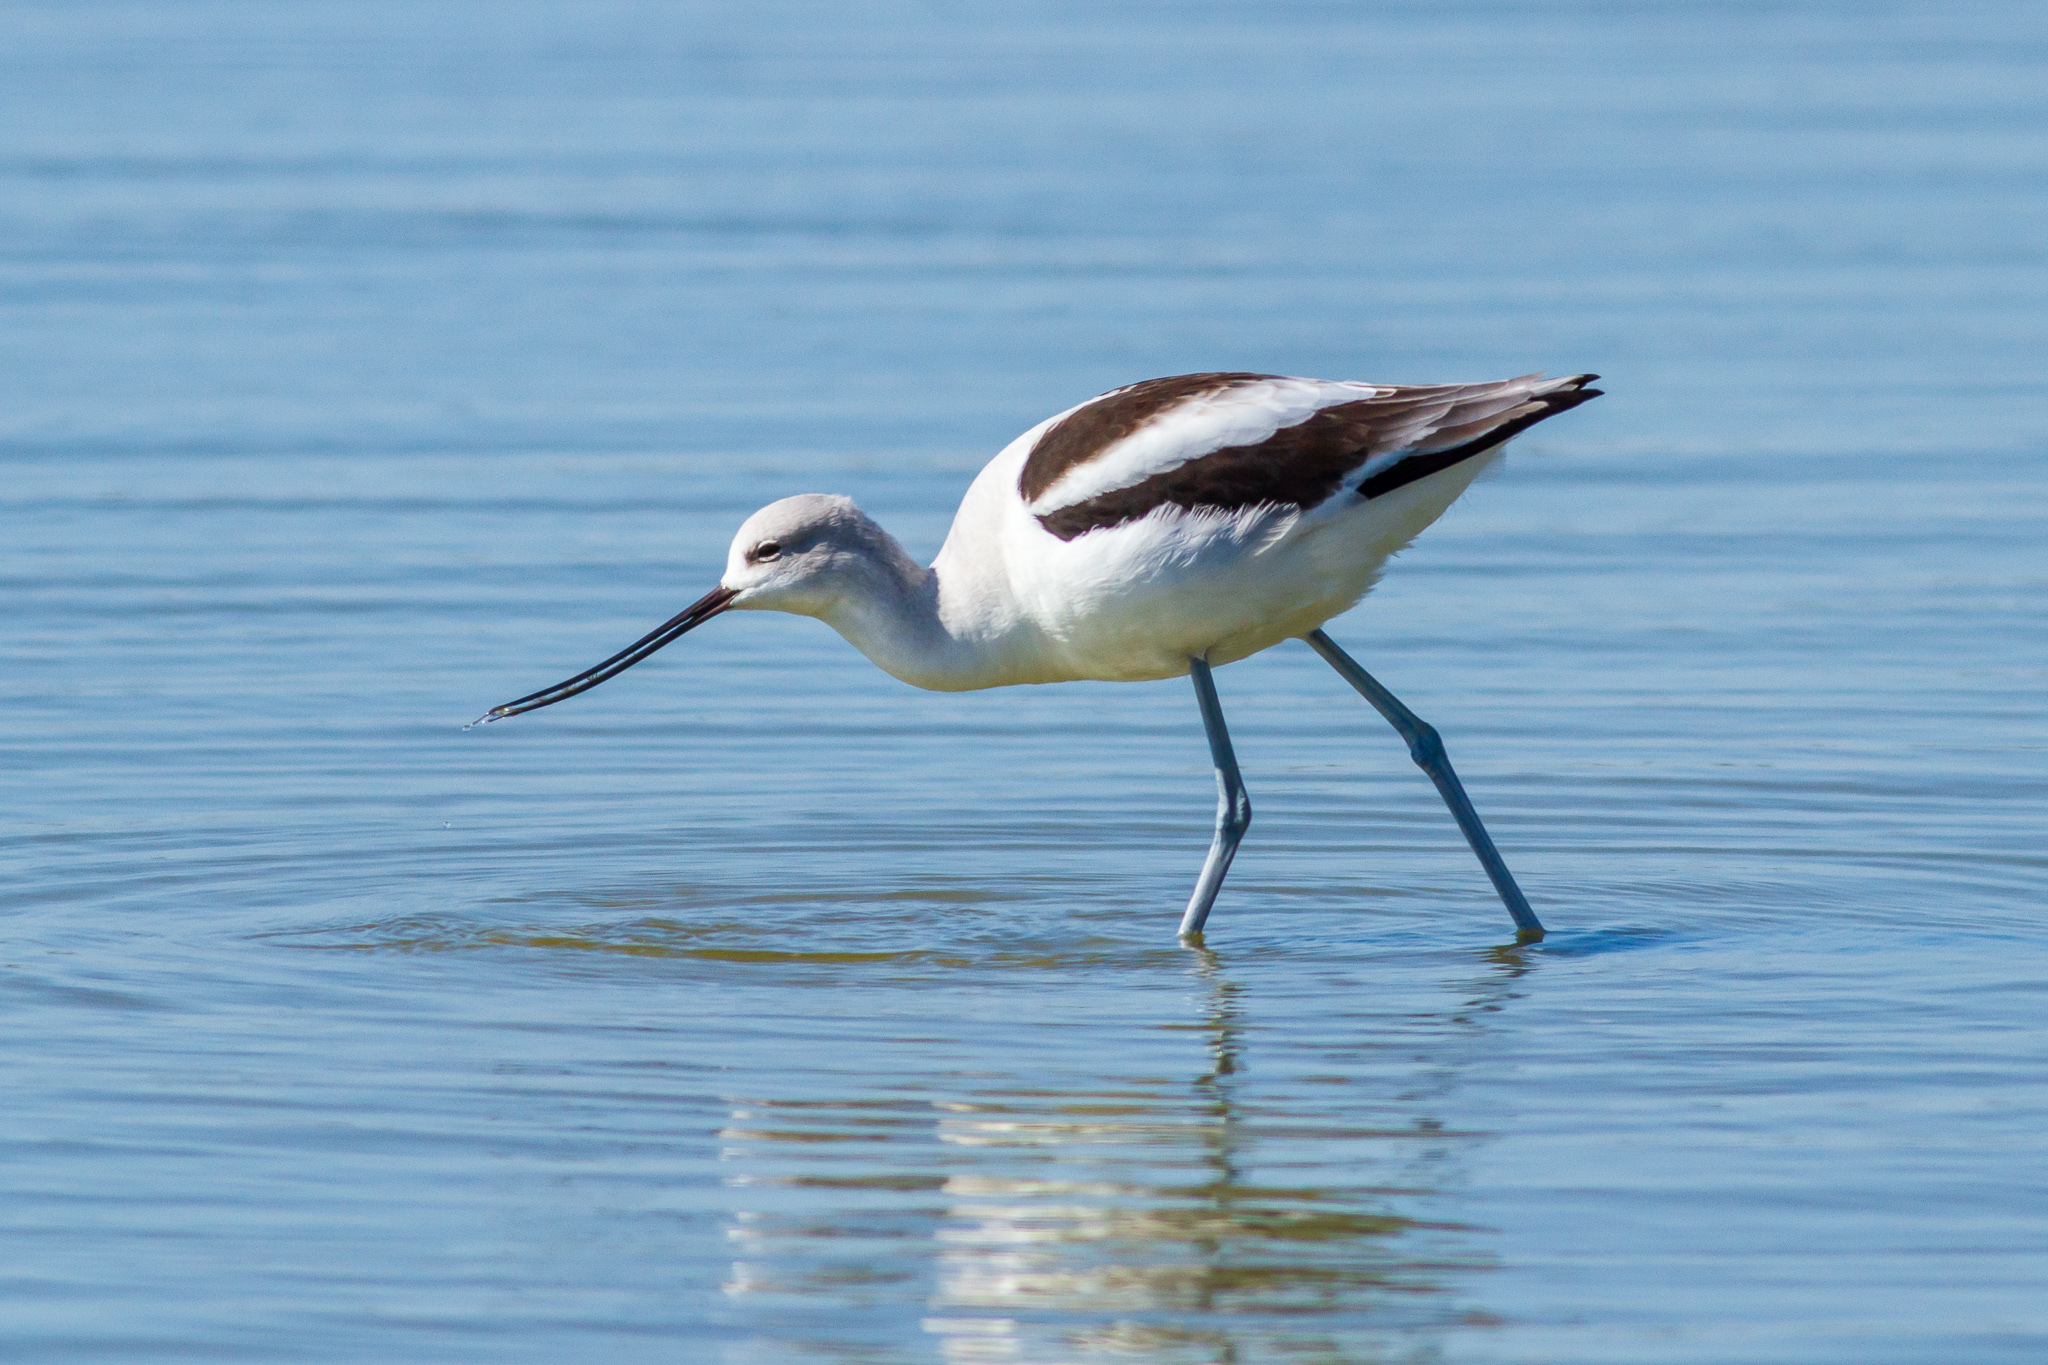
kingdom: Animalia
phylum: Chordata
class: Aves
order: Charadriiformes
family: Recurvirostridae
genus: Recurvirostra
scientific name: Recurvirostra americana
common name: American avocet
